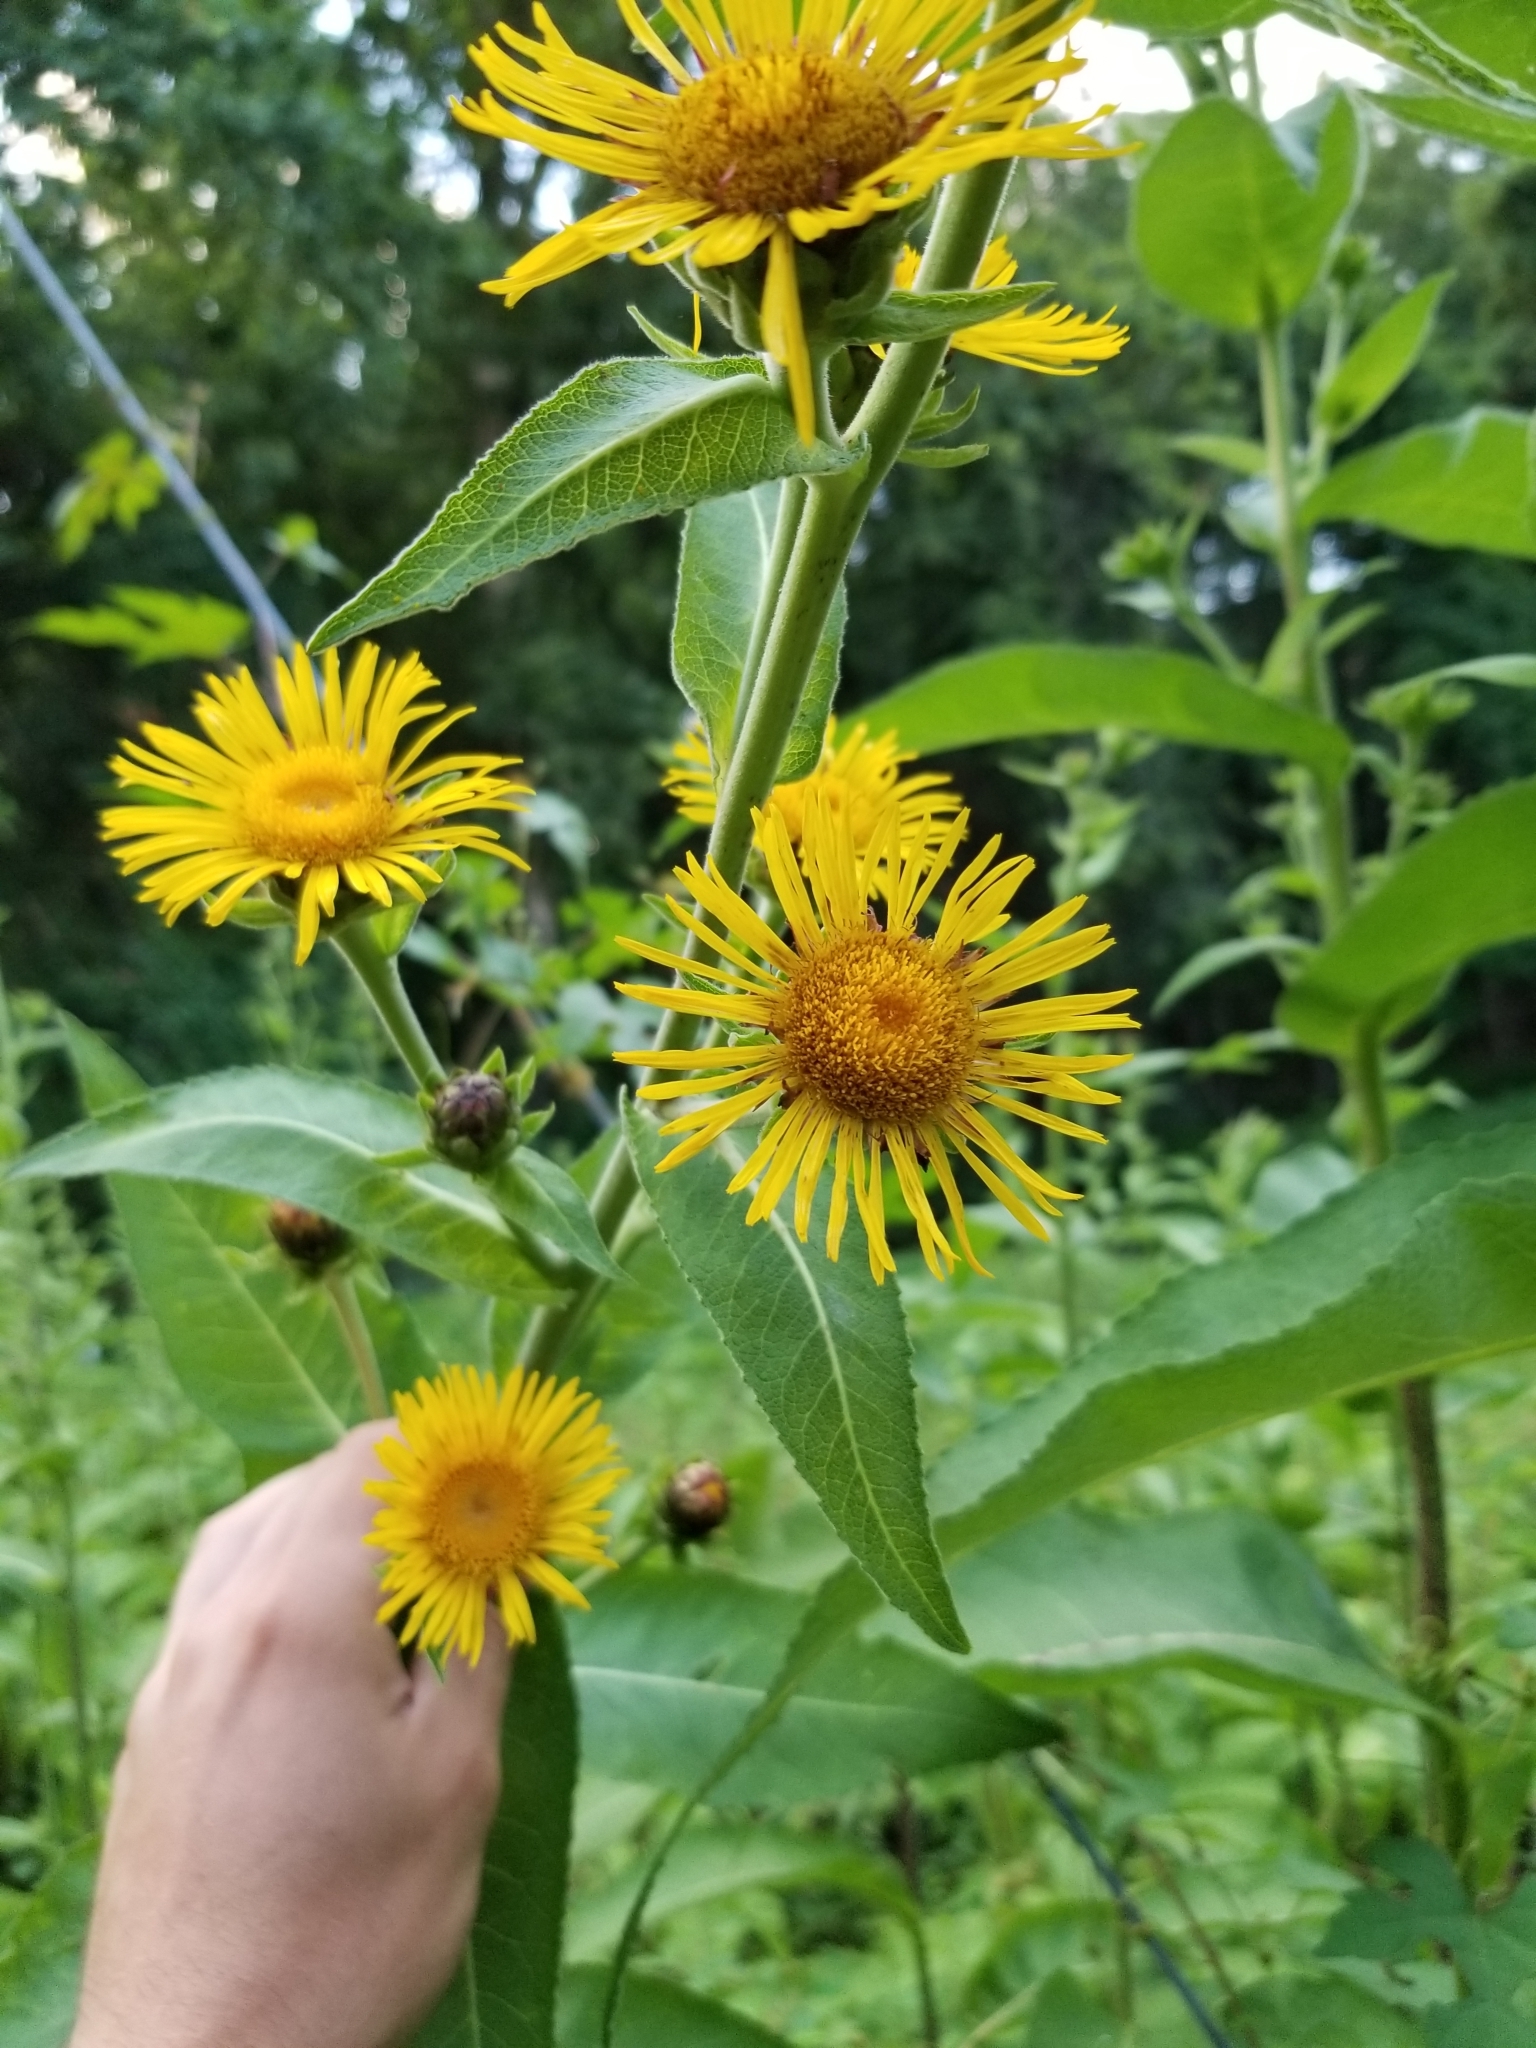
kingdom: Plantae
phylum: Tracheophyta
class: Magnoliopsida
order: Asterales
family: Asteraceae
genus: Inula
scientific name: Inula helenium
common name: Elecampane
